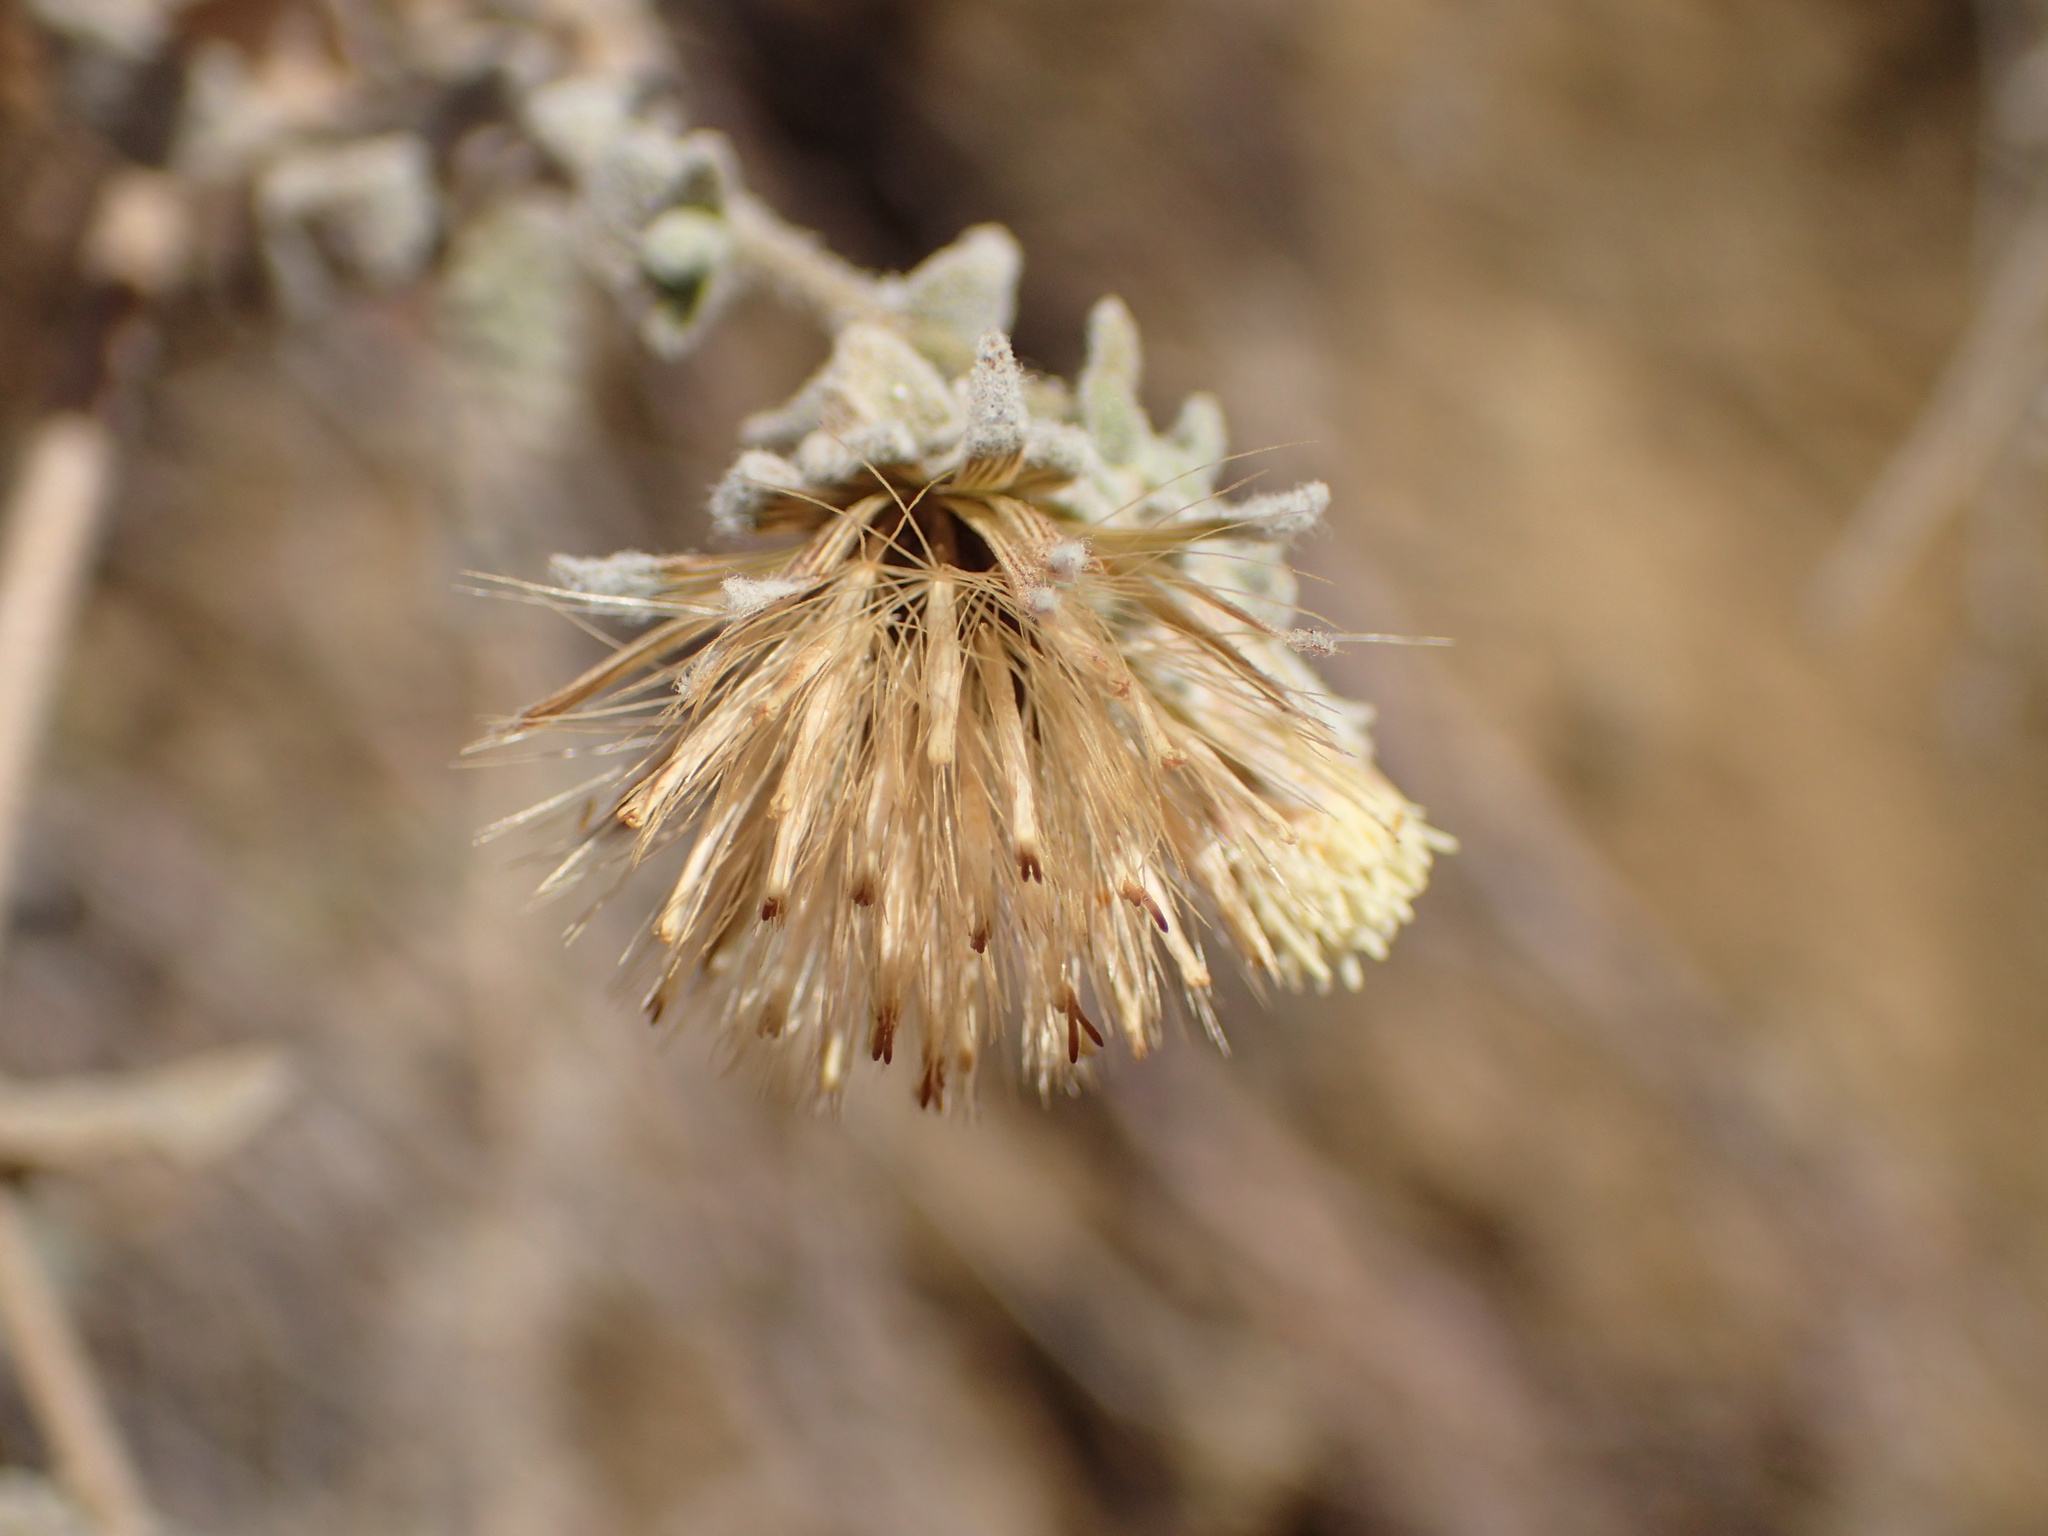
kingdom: Plantae
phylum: Tracheophyta
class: Magnoliopsida
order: Asterales
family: Asteraceae
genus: Brickellia
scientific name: Brickellia nevinii
